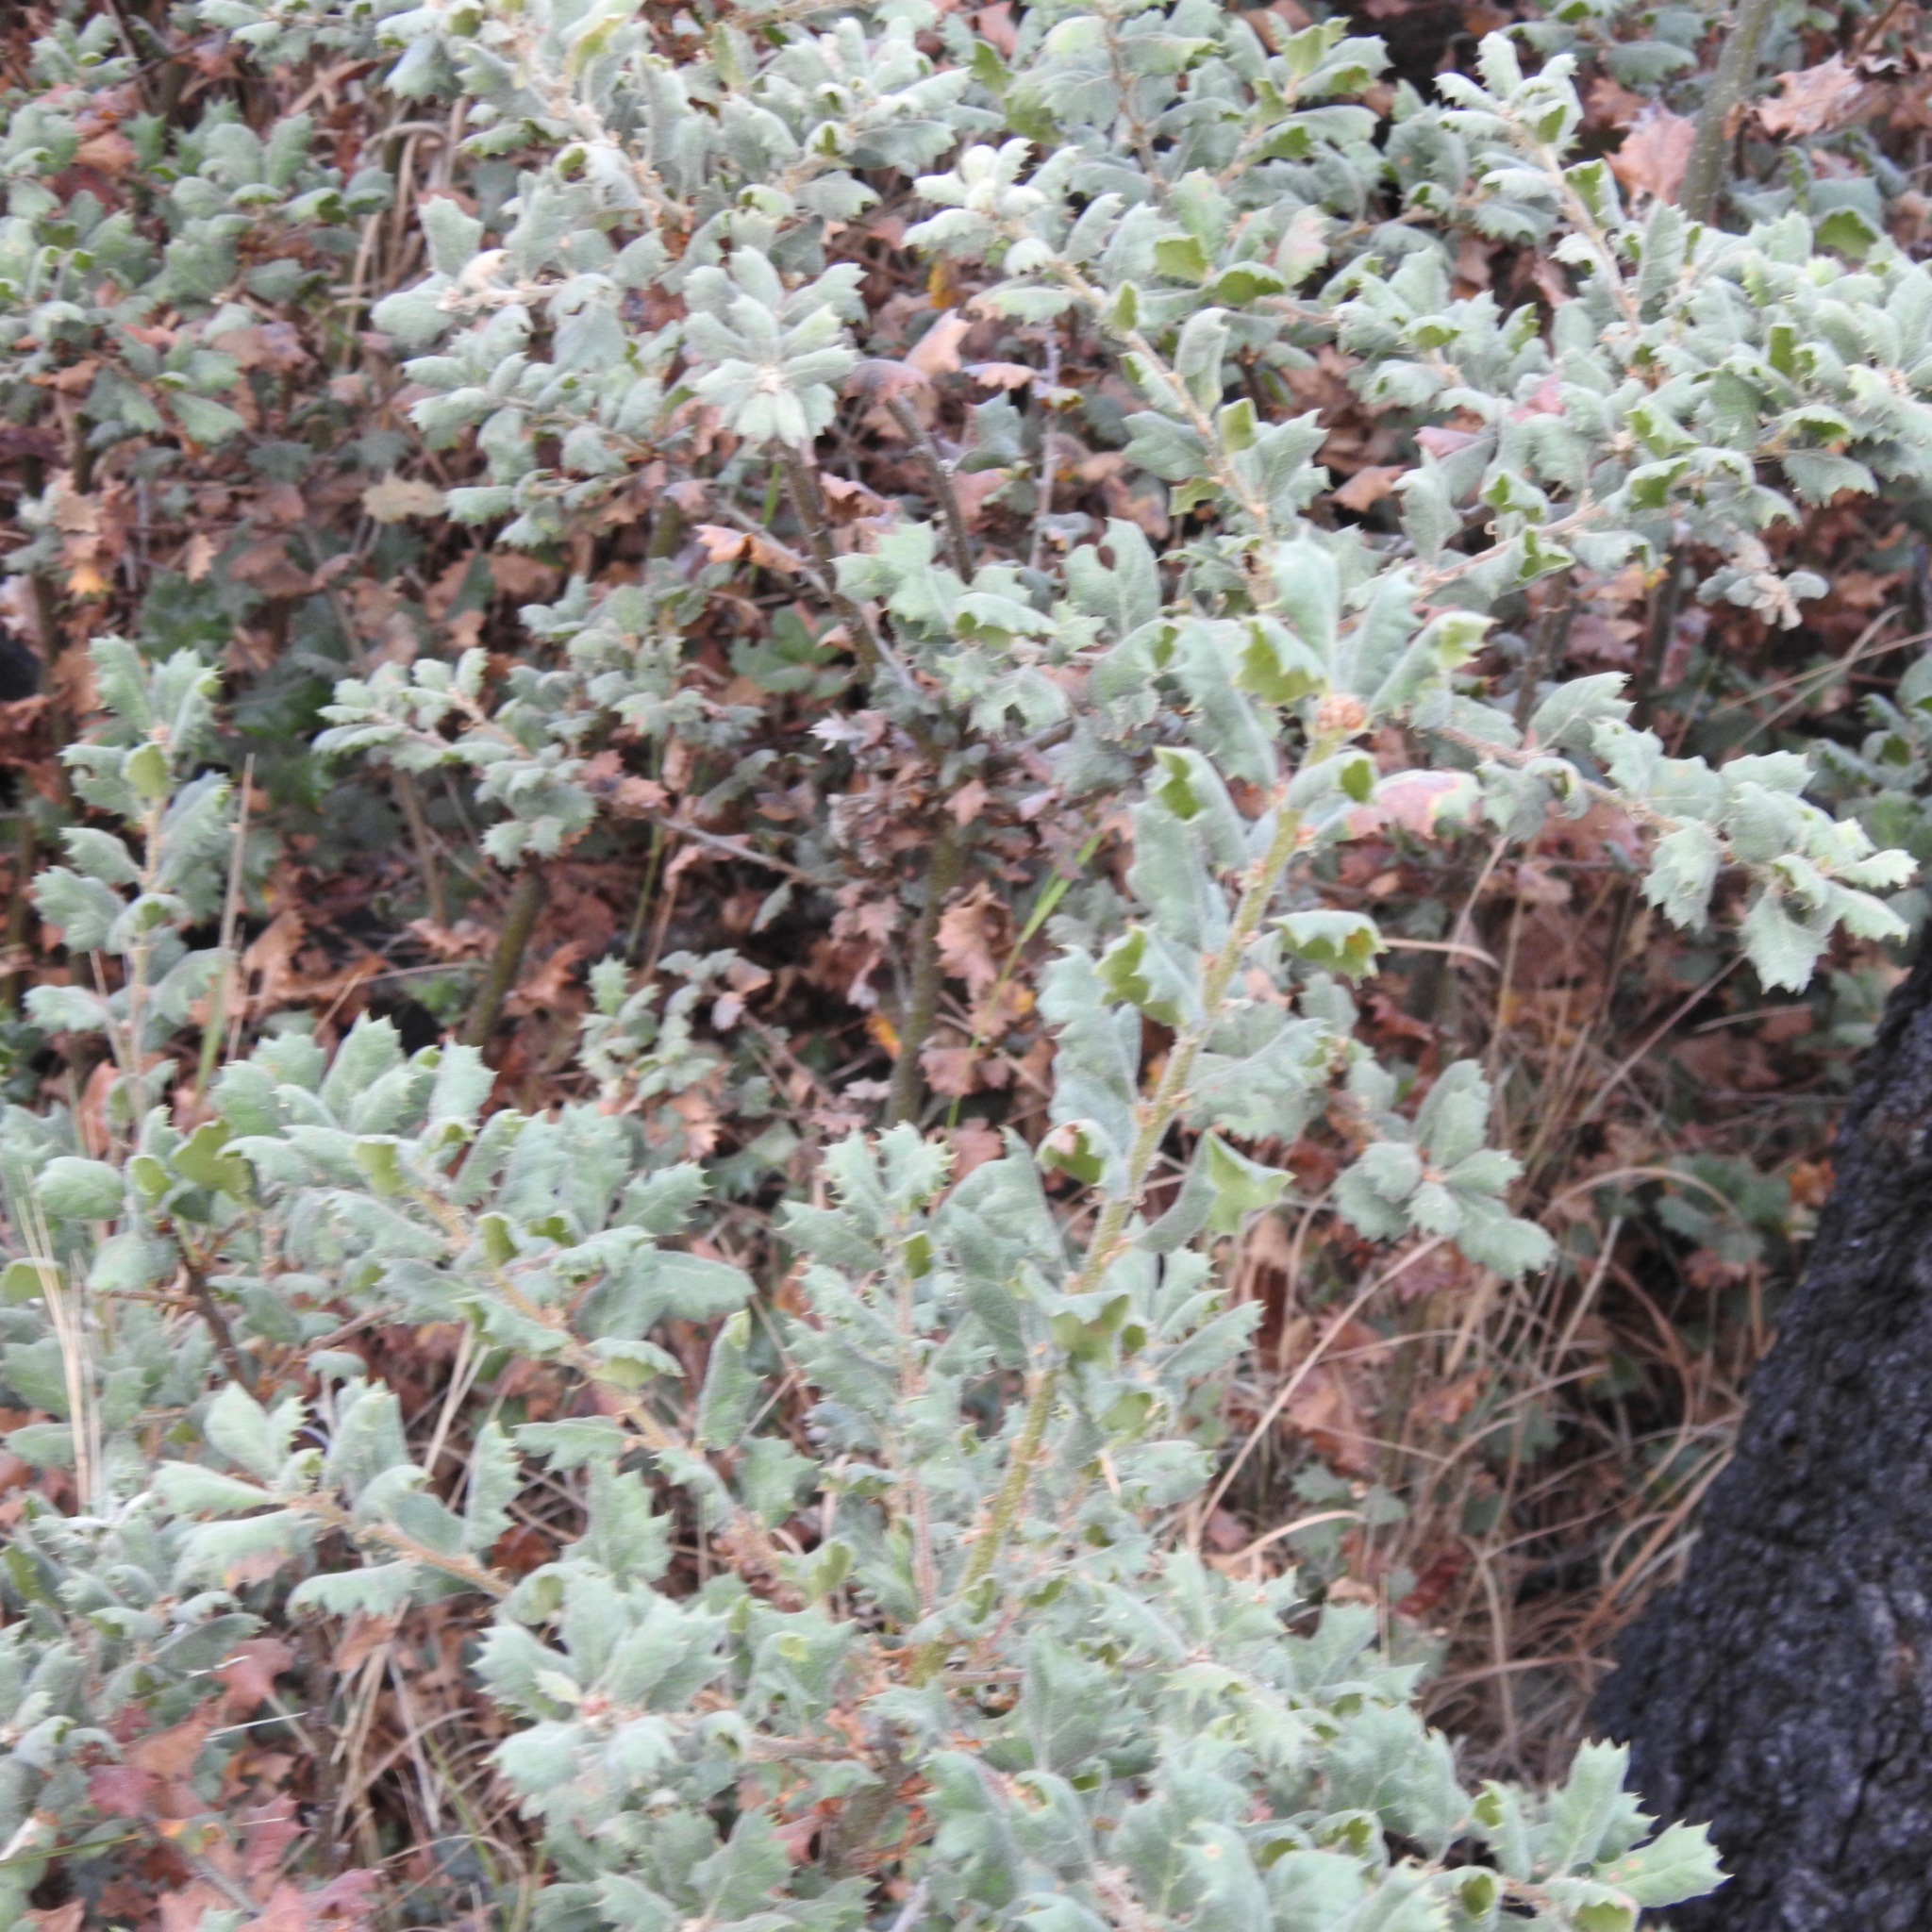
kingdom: Plantae
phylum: Tracheophyta
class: Magnoliopsida
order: Fagales
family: Fagaceae
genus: Quercus
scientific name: Quercus durata
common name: Leather oak
